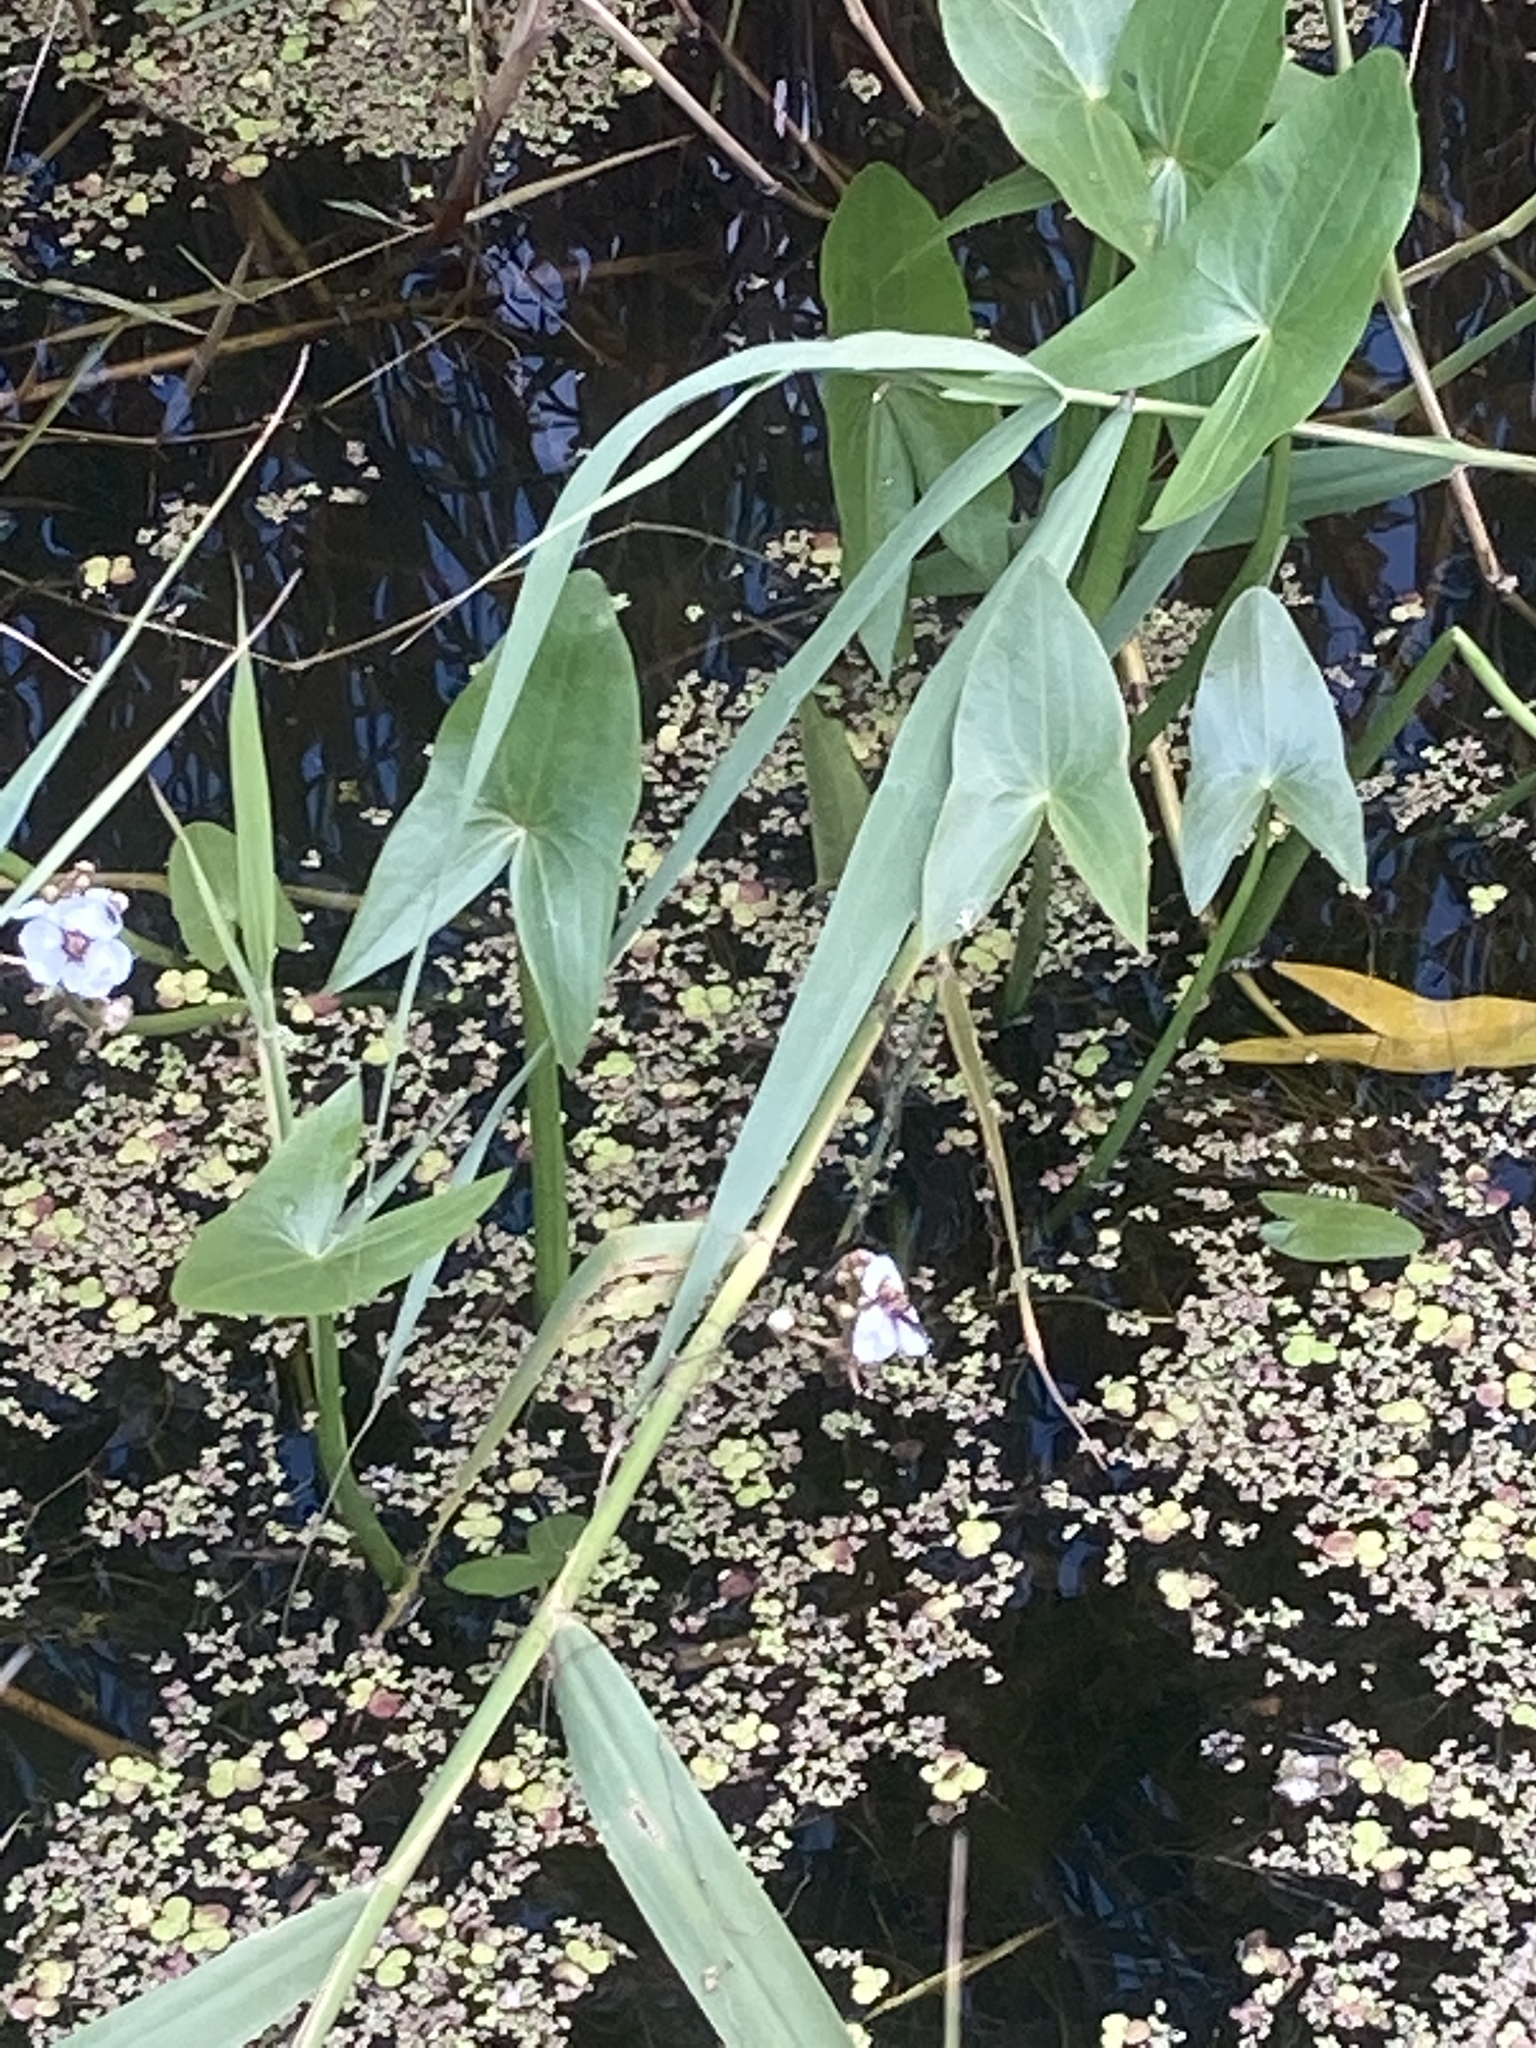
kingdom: Plantae
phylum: Tracheophyta
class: Liliopsida
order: Alismatales
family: Alismataceae
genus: Sagittaria
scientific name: Sagittaria sagittifolia
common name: Arrowhead
